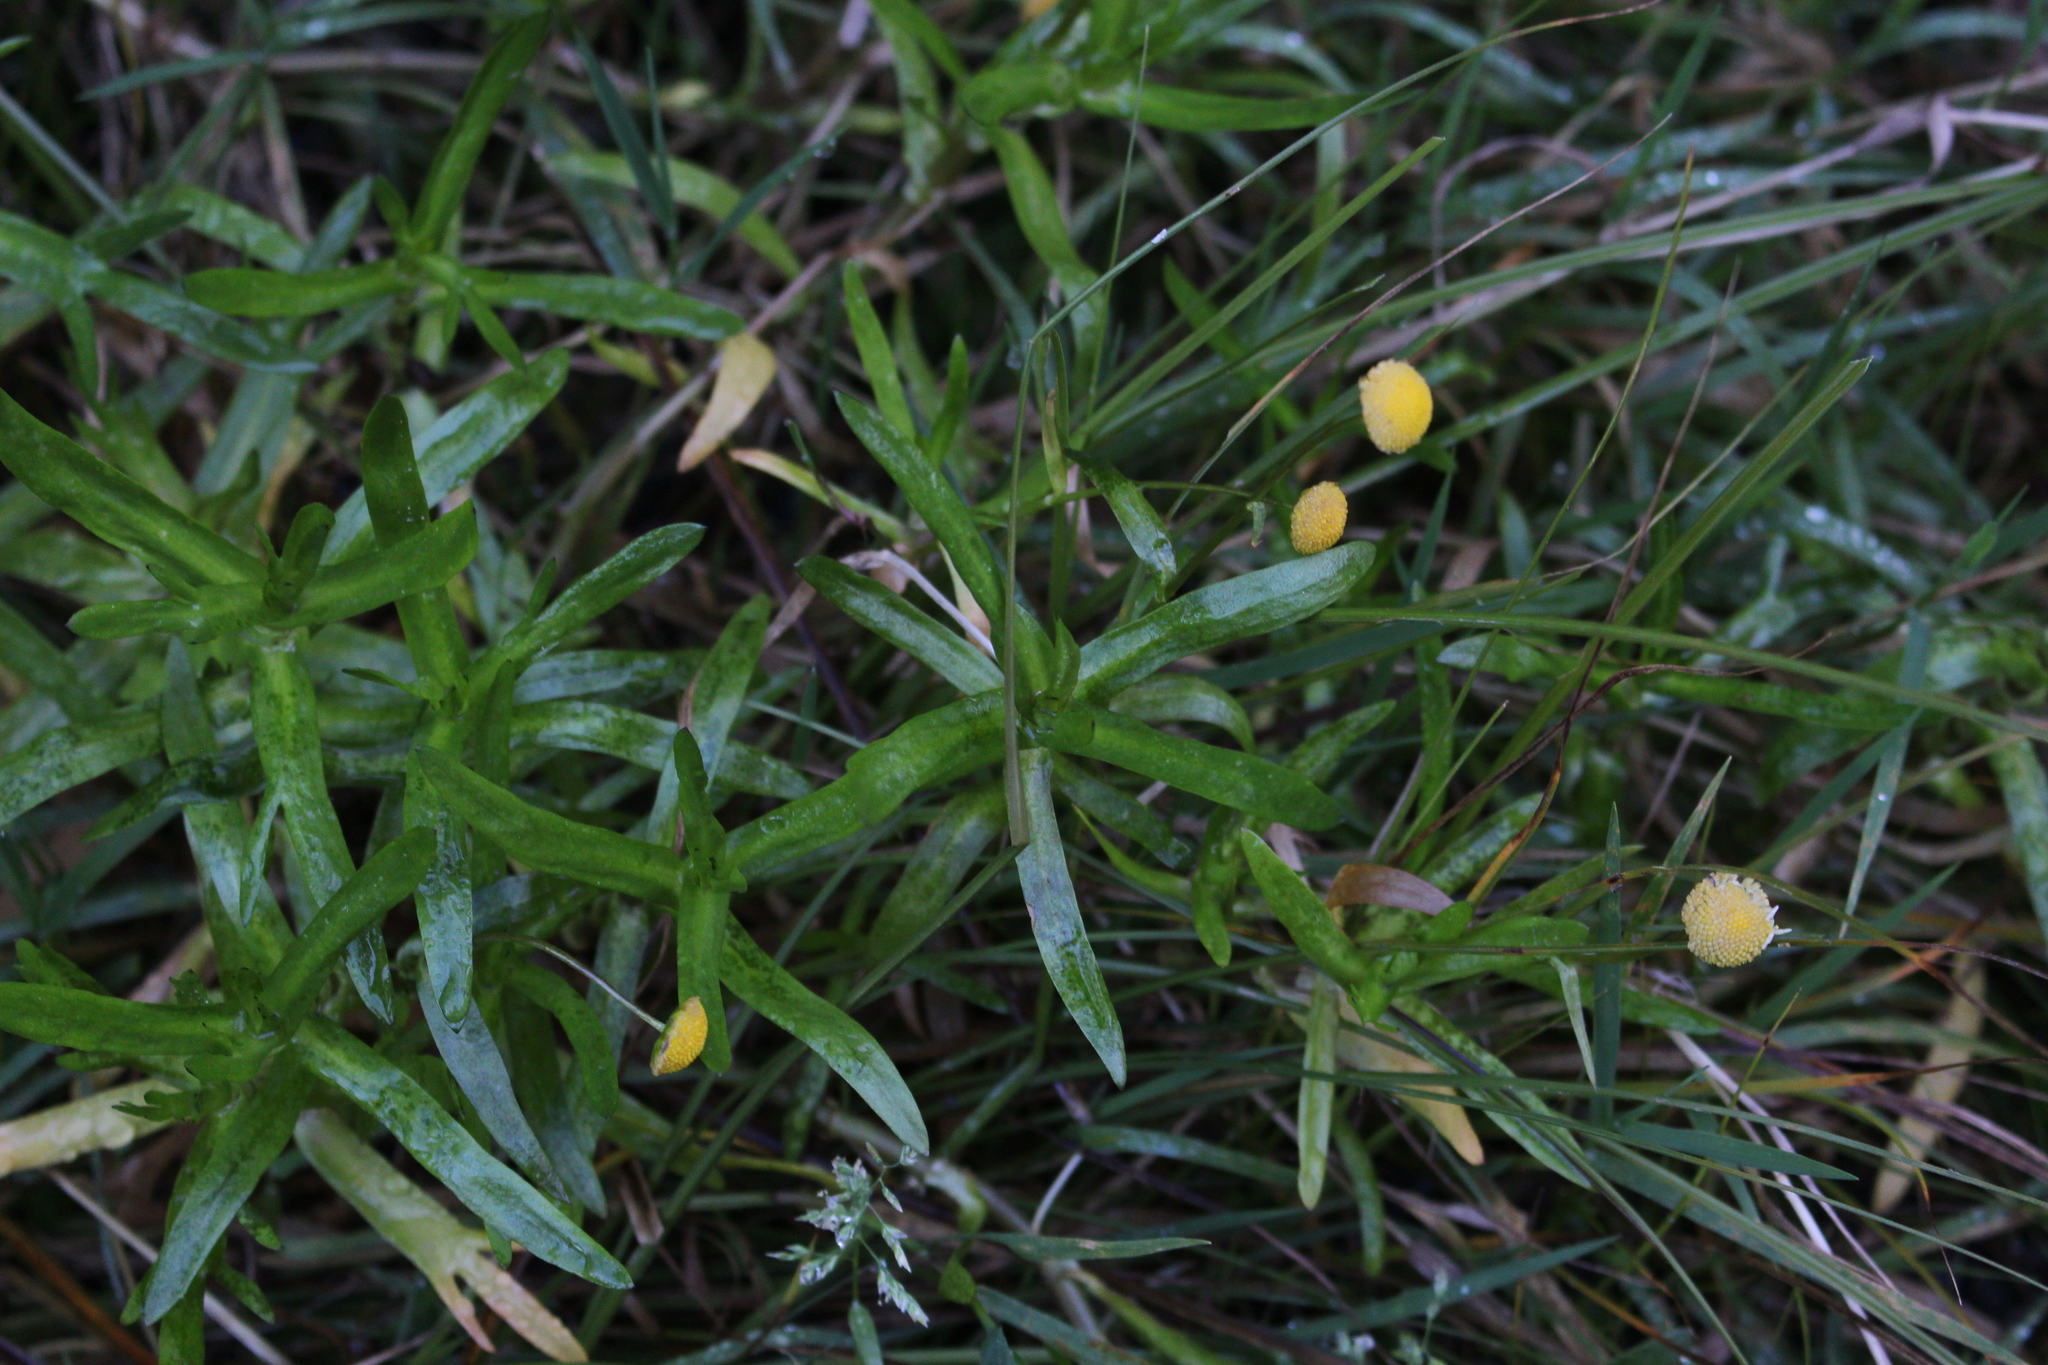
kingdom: Plantae
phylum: Tracheophyta
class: Magnoliopsida
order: Asterales
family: Asteraceae
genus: Cotula
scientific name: Cotula coronopifolia
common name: Buttonweed
